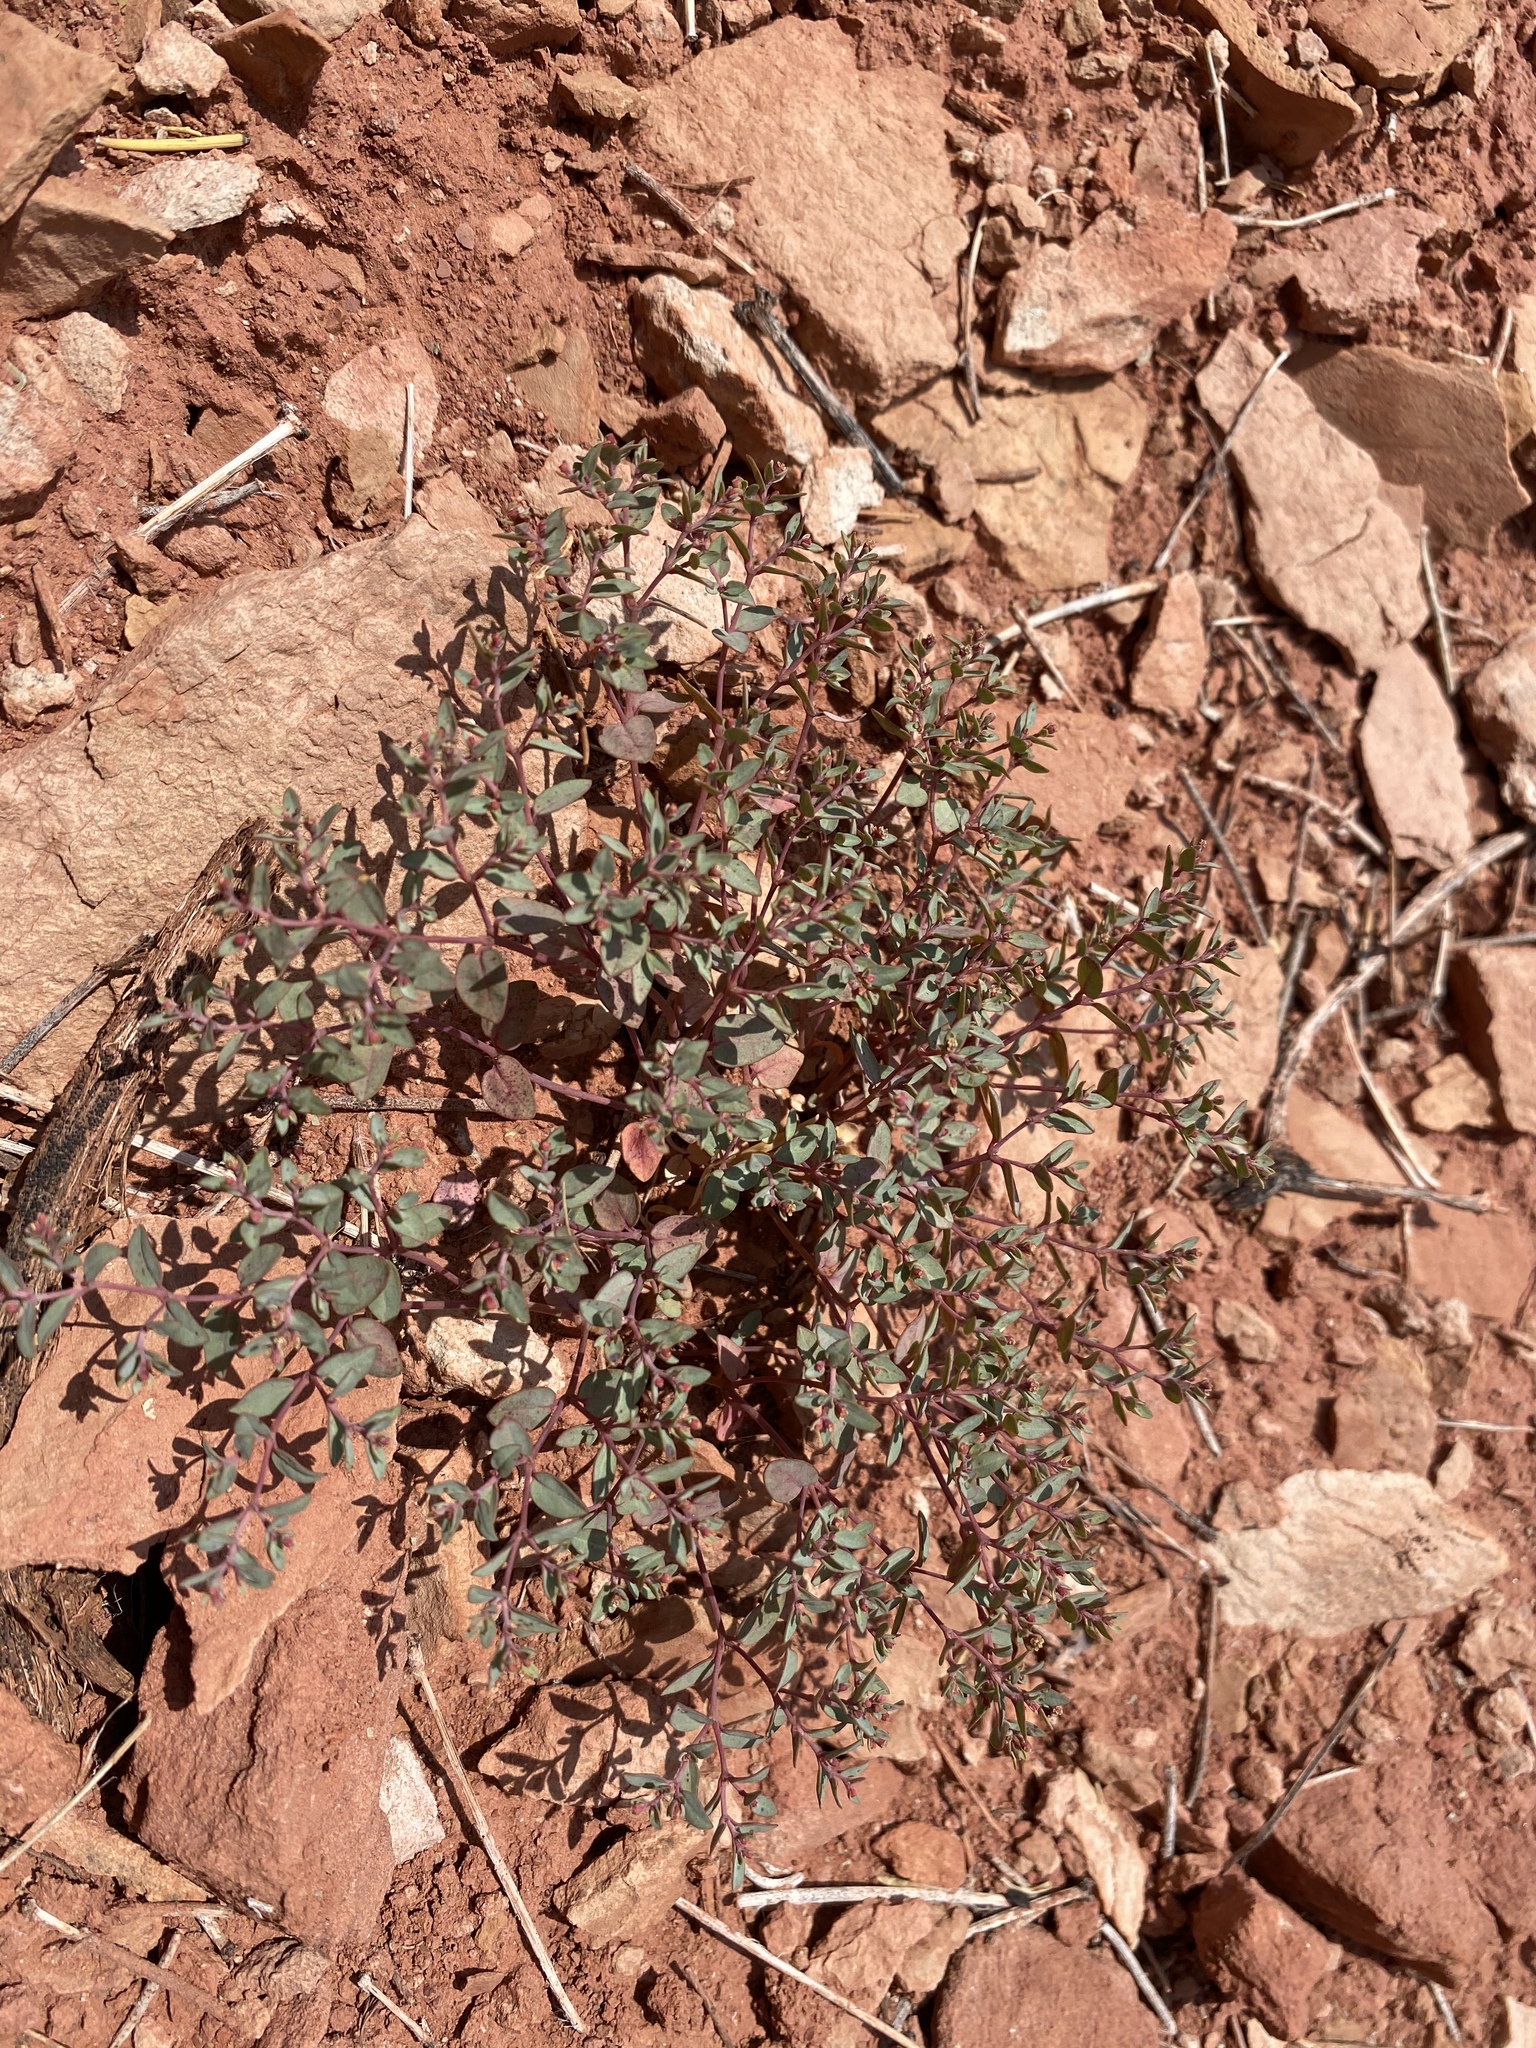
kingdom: Plantae
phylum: Tracheophyta
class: Magnoliopsida
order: Malpighiales
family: Euphorbiaceae
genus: Euphorbia
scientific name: Euphorbia fendleri
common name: Fendler's euphorbia
